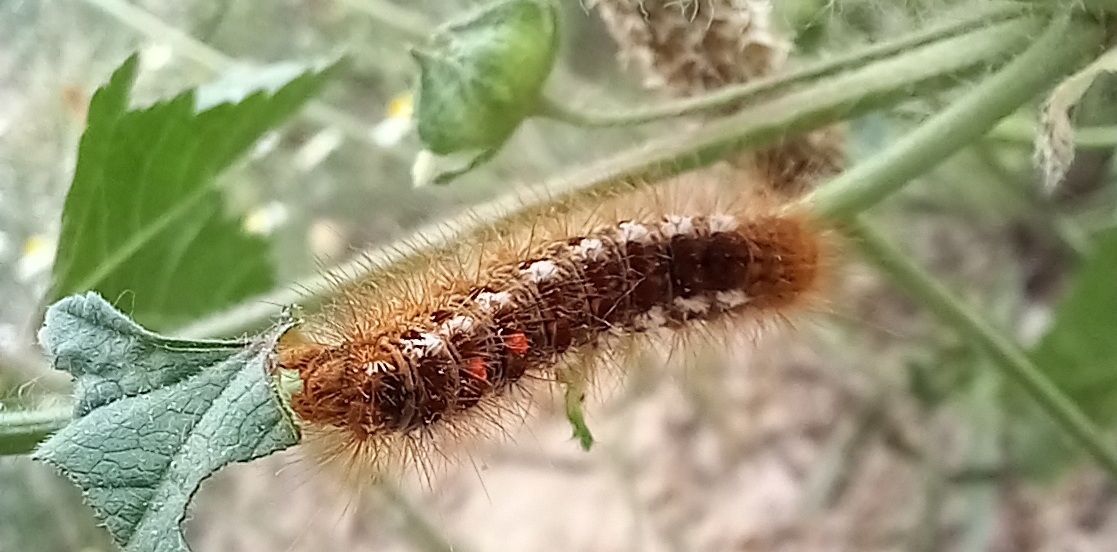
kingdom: Animalia
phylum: Arthropoda
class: Insecta
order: Lepidoptera
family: Erebidae
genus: Euproctis
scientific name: Euproctis chrysorrhoea
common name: Brown-tail
